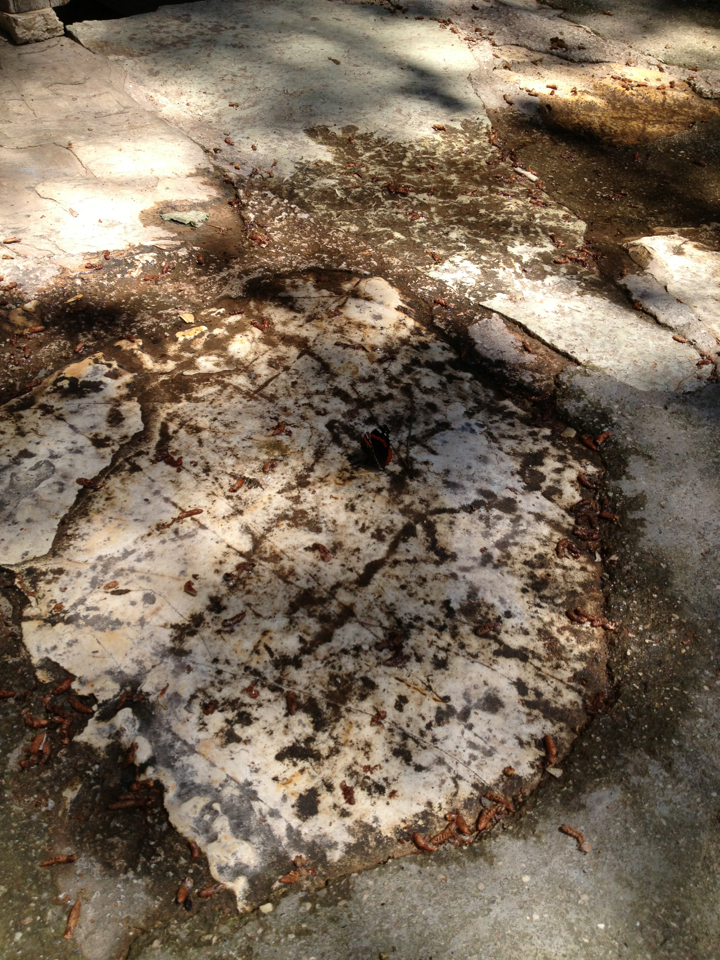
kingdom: Animalia
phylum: Arthropoda
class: Insecta
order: Lepidoptera
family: Nymphalidae
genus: Vanessa
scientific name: Vanessa atalanta
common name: Red admiral
